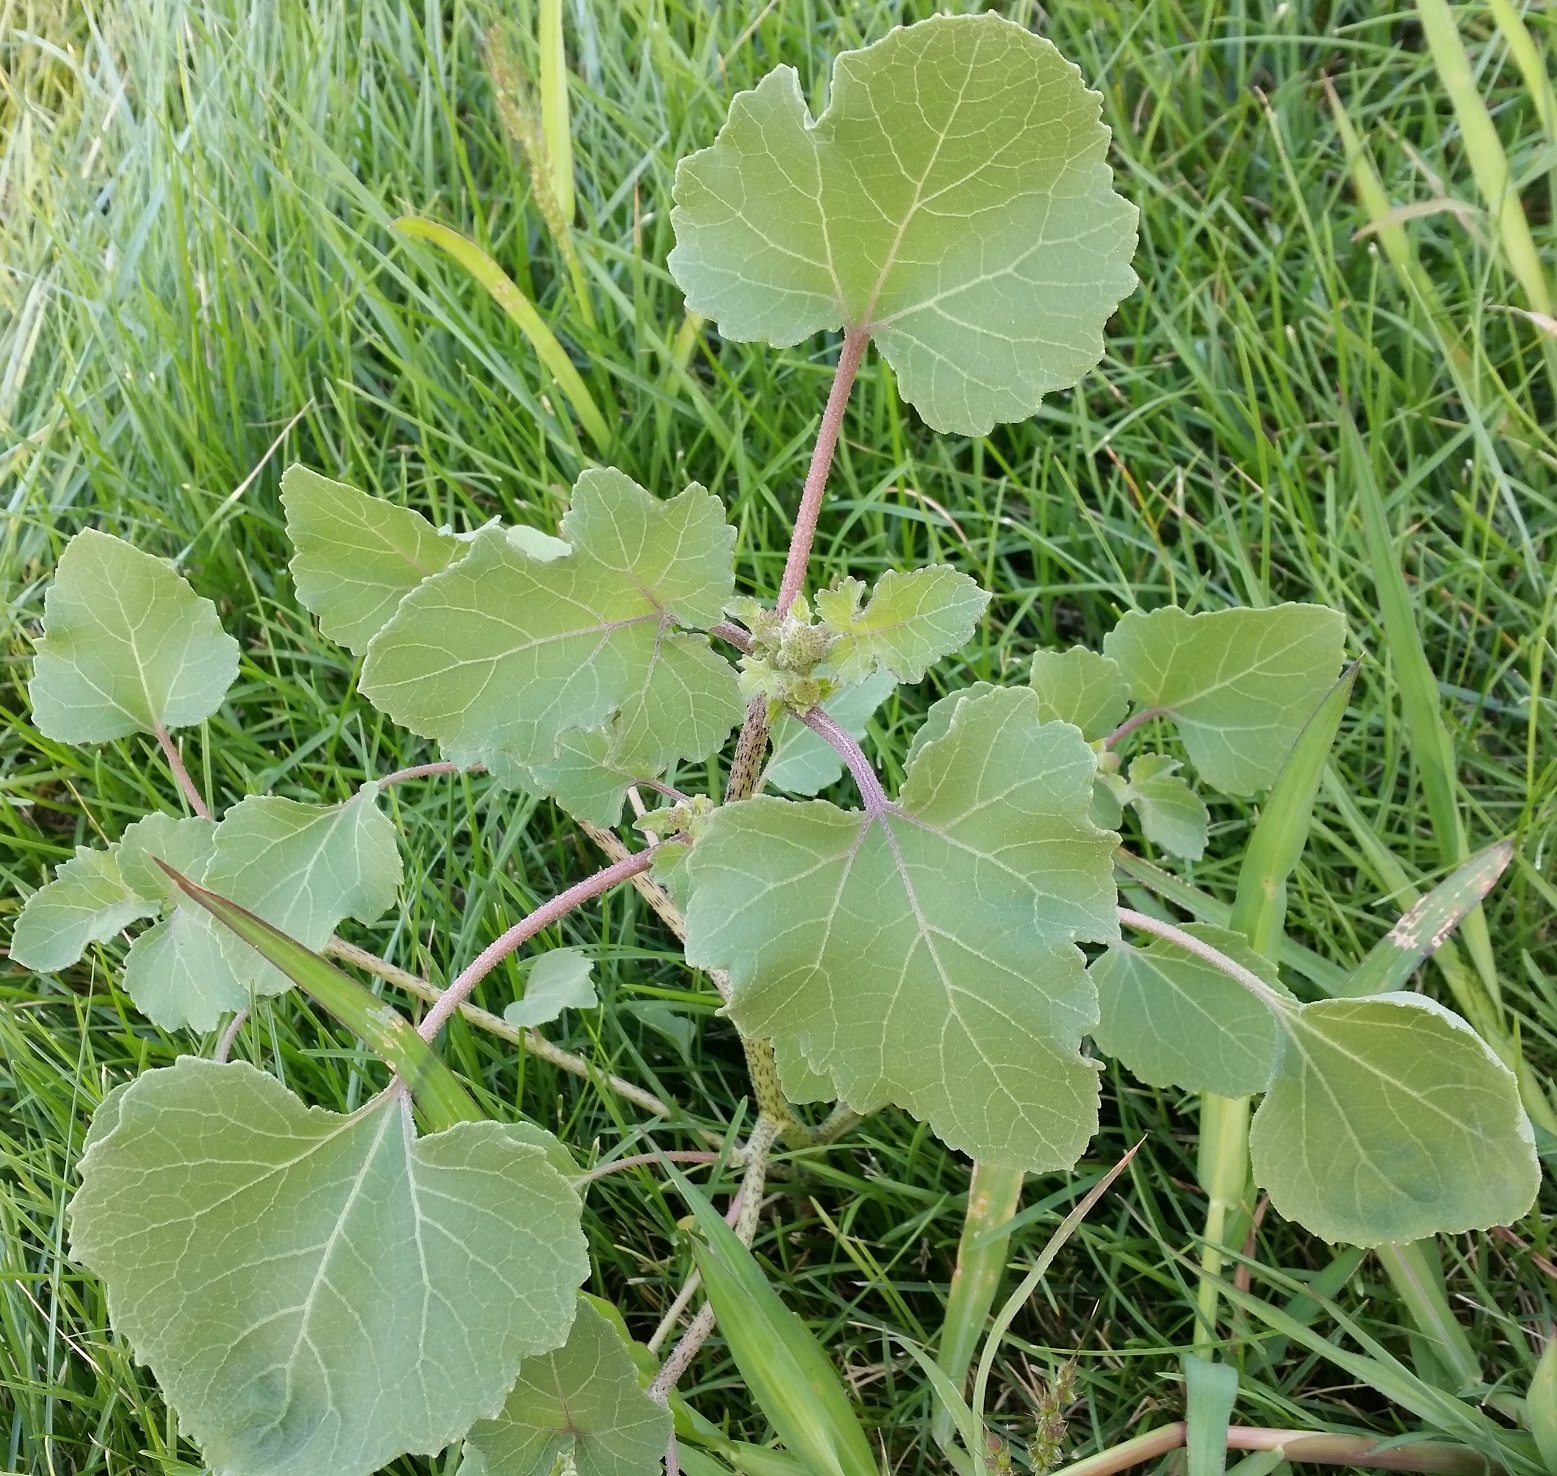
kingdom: Plantae
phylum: Tracheophyta
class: Magnoliopsida
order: Asterales
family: Asteraceae
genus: Xanthium
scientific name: Xanthium strumarium
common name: Rough cocklebur
